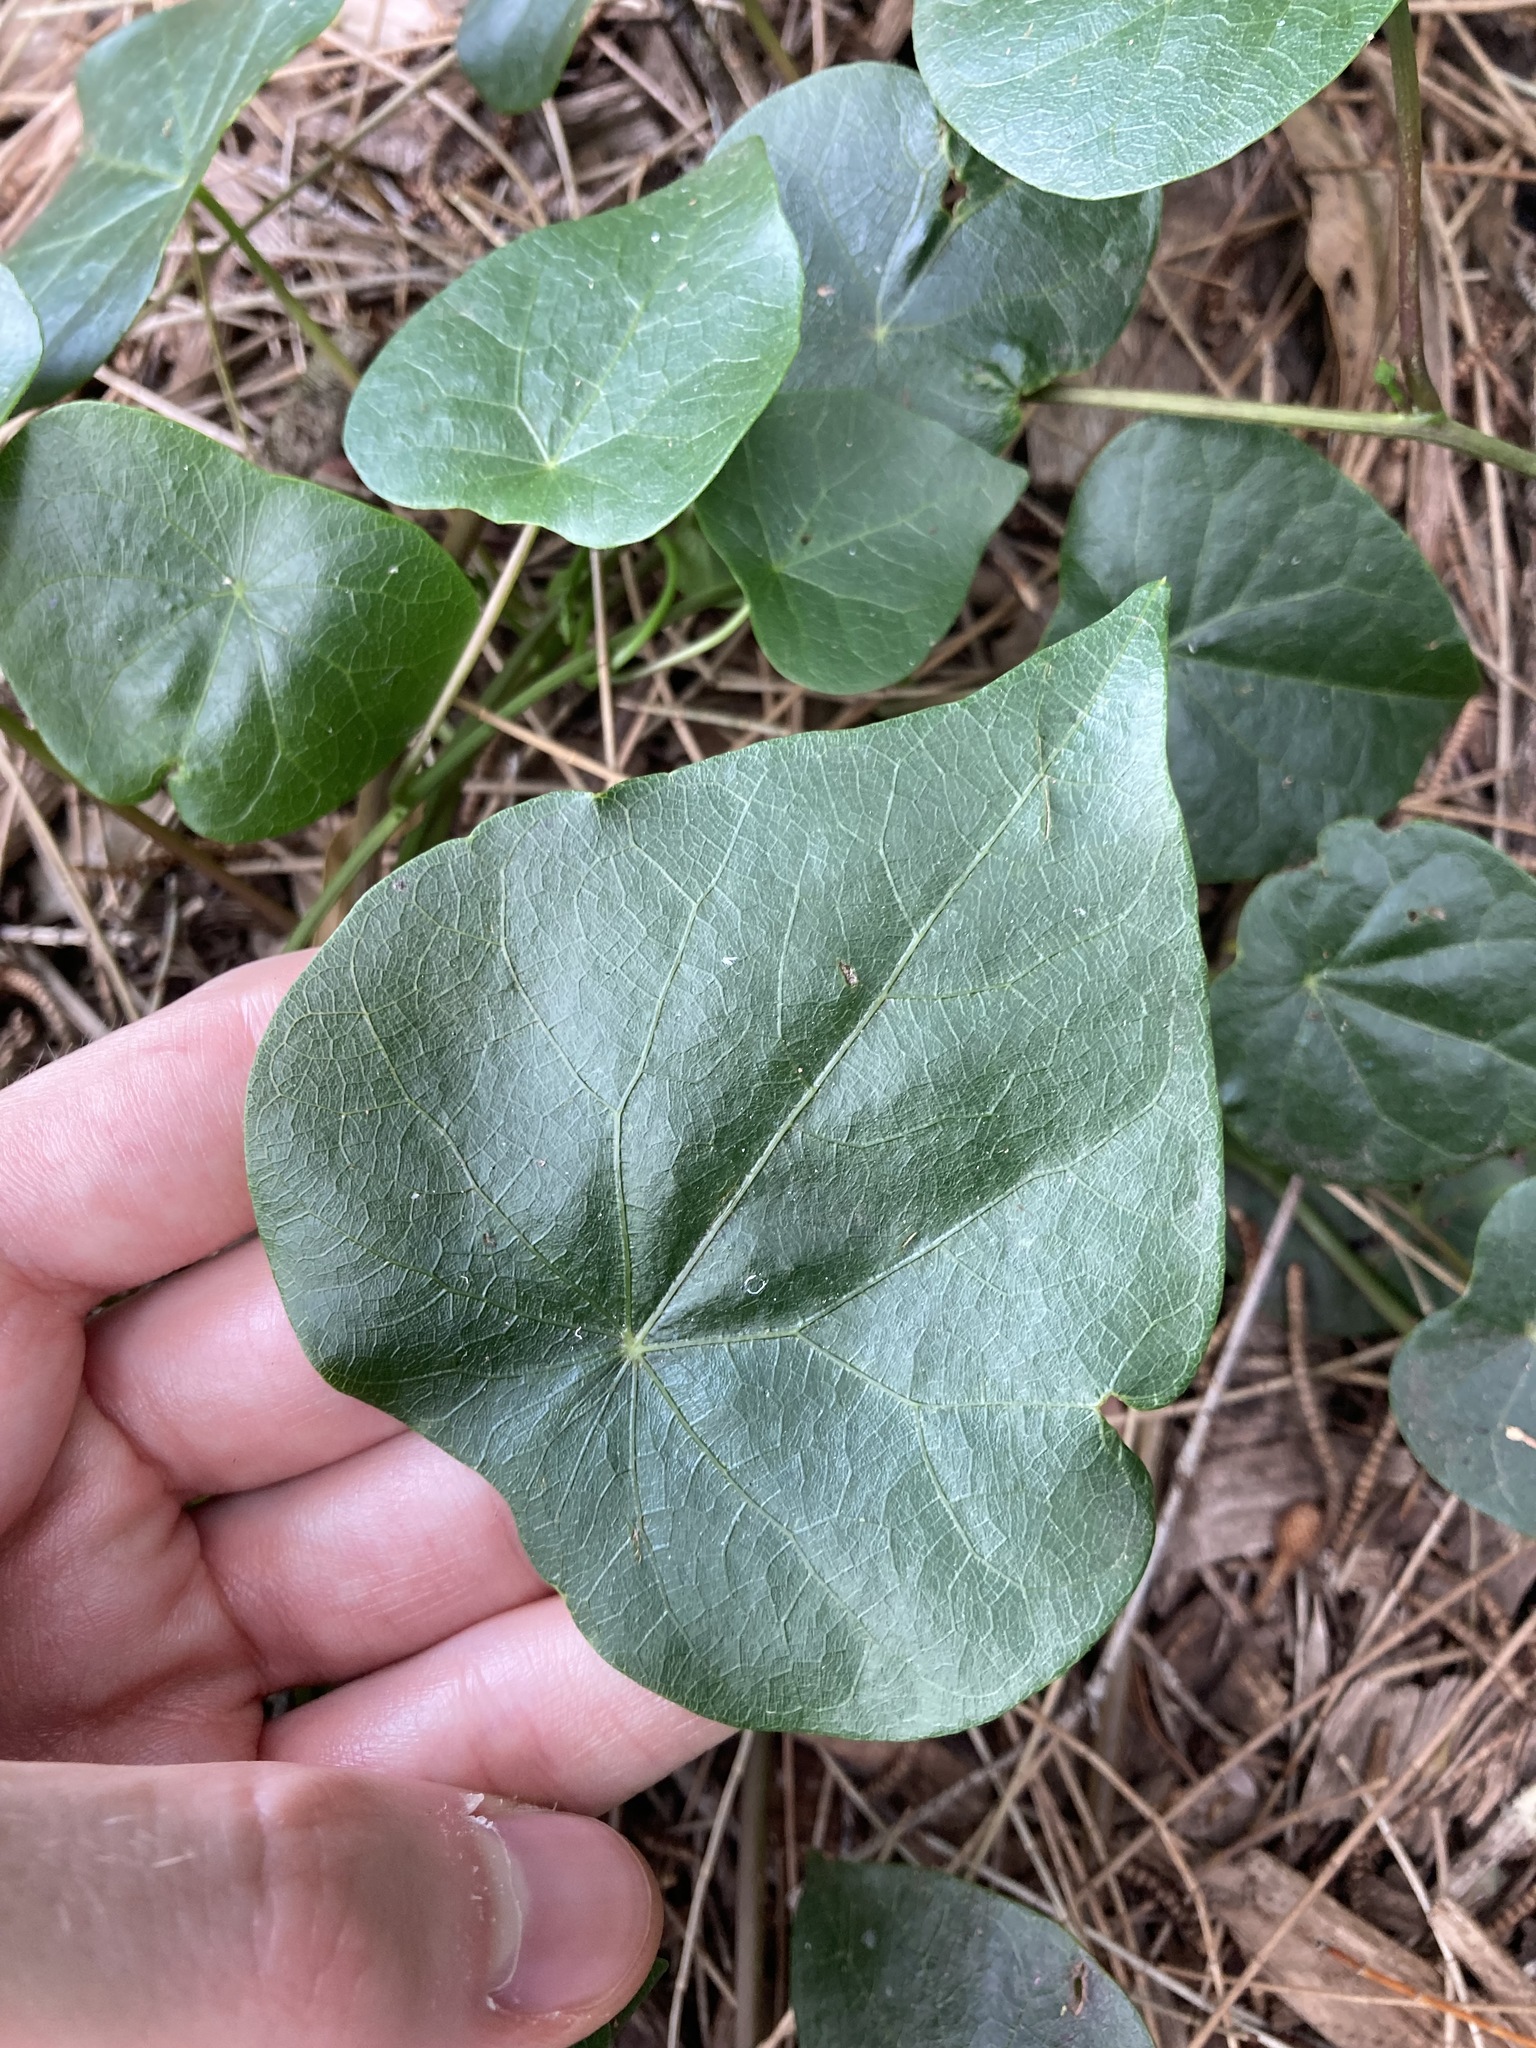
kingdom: Plantae
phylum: Tracheophyta
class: Magnoliopsida
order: Ranunculales
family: Menispermaceae
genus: Stephania
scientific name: Stephania japonica
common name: Snake vine
